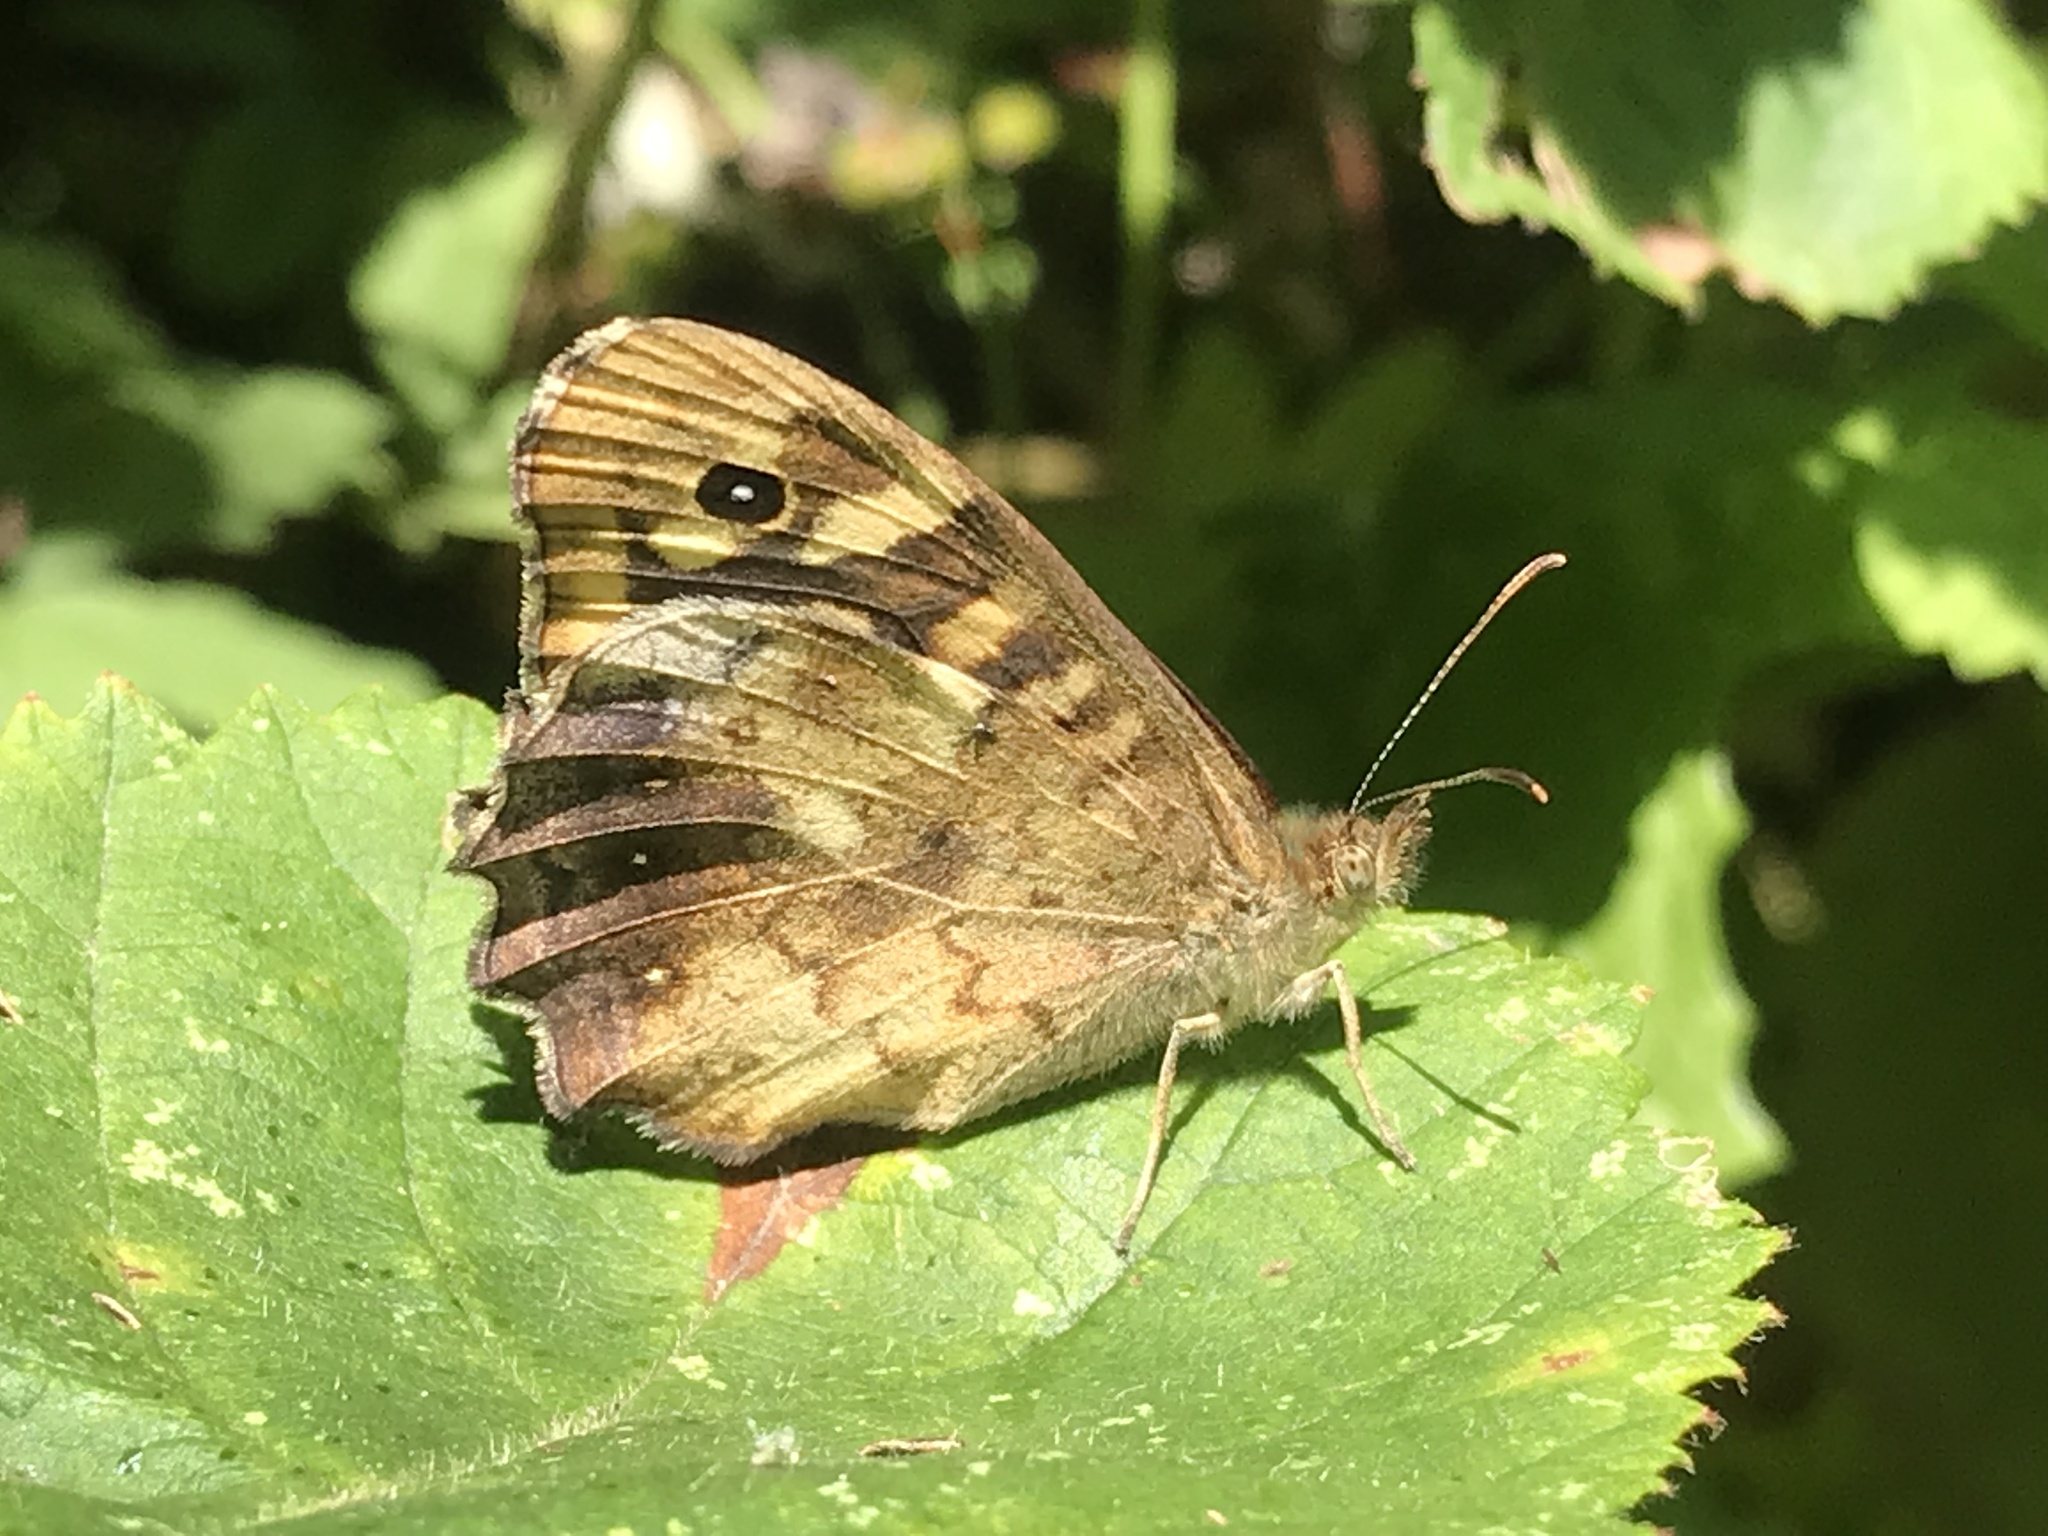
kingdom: Animalia
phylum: Arthropoda
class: Insecta
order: Lepidoptera
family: Nymphalidae
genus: Pararge
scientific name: Pararge aegeria
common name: Speckled wood
